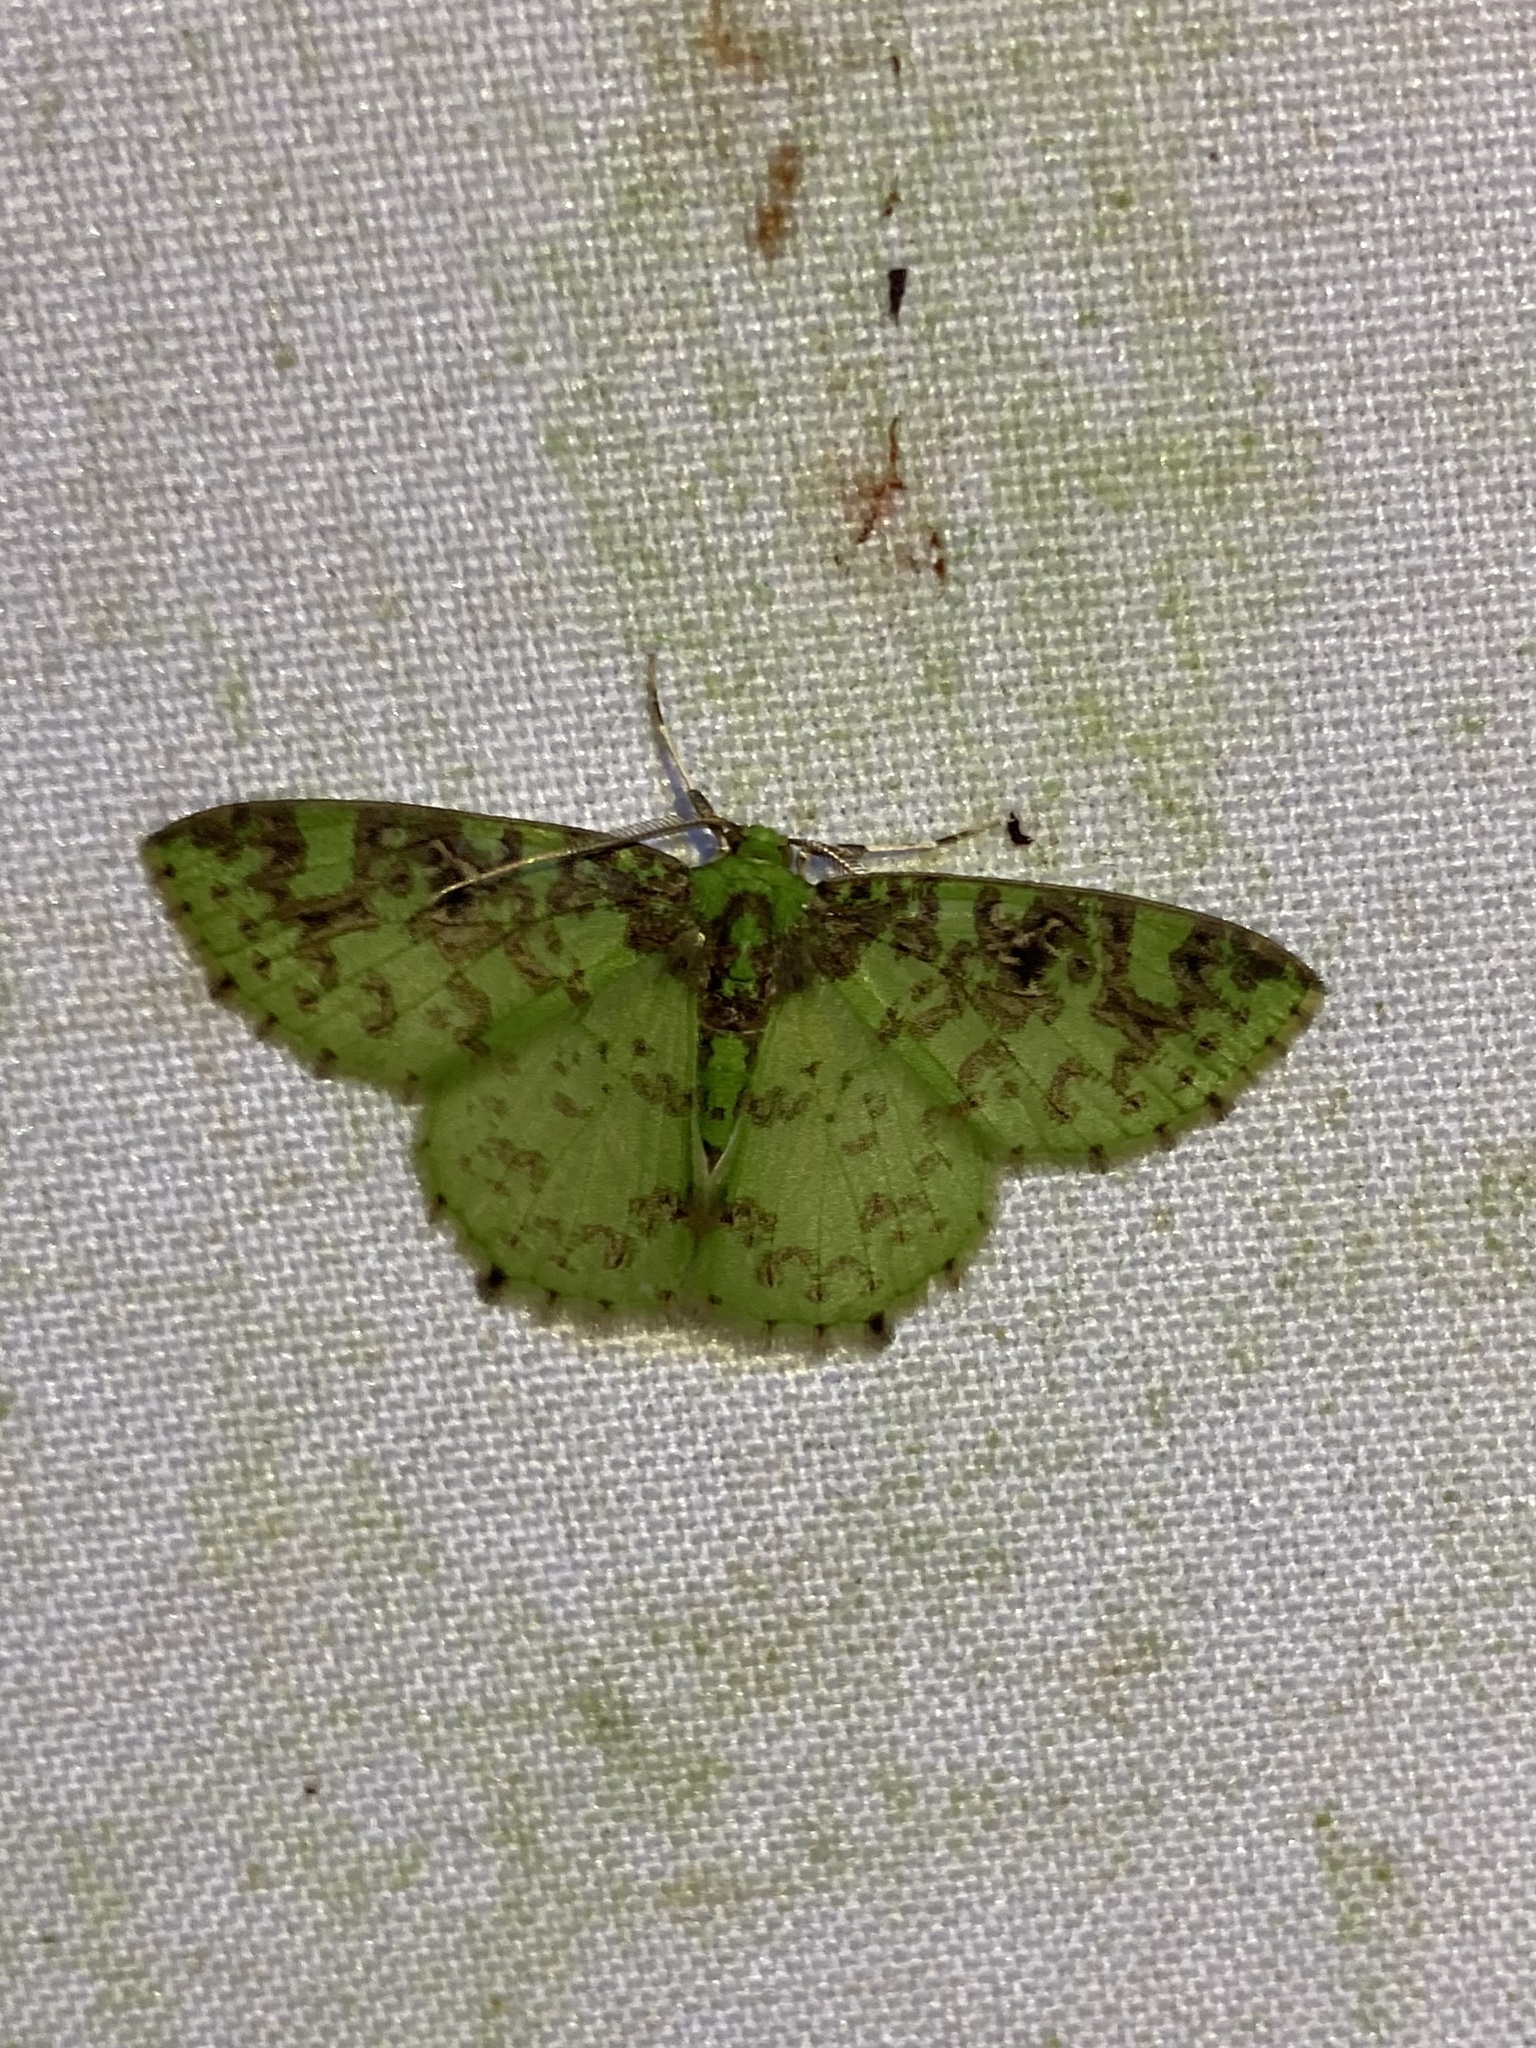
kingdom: Animalia
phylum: Arthropoda
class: Insecta
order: Lepidoptera
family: Geometridae
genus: Nemoria
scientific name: Nemoria scriptaria
